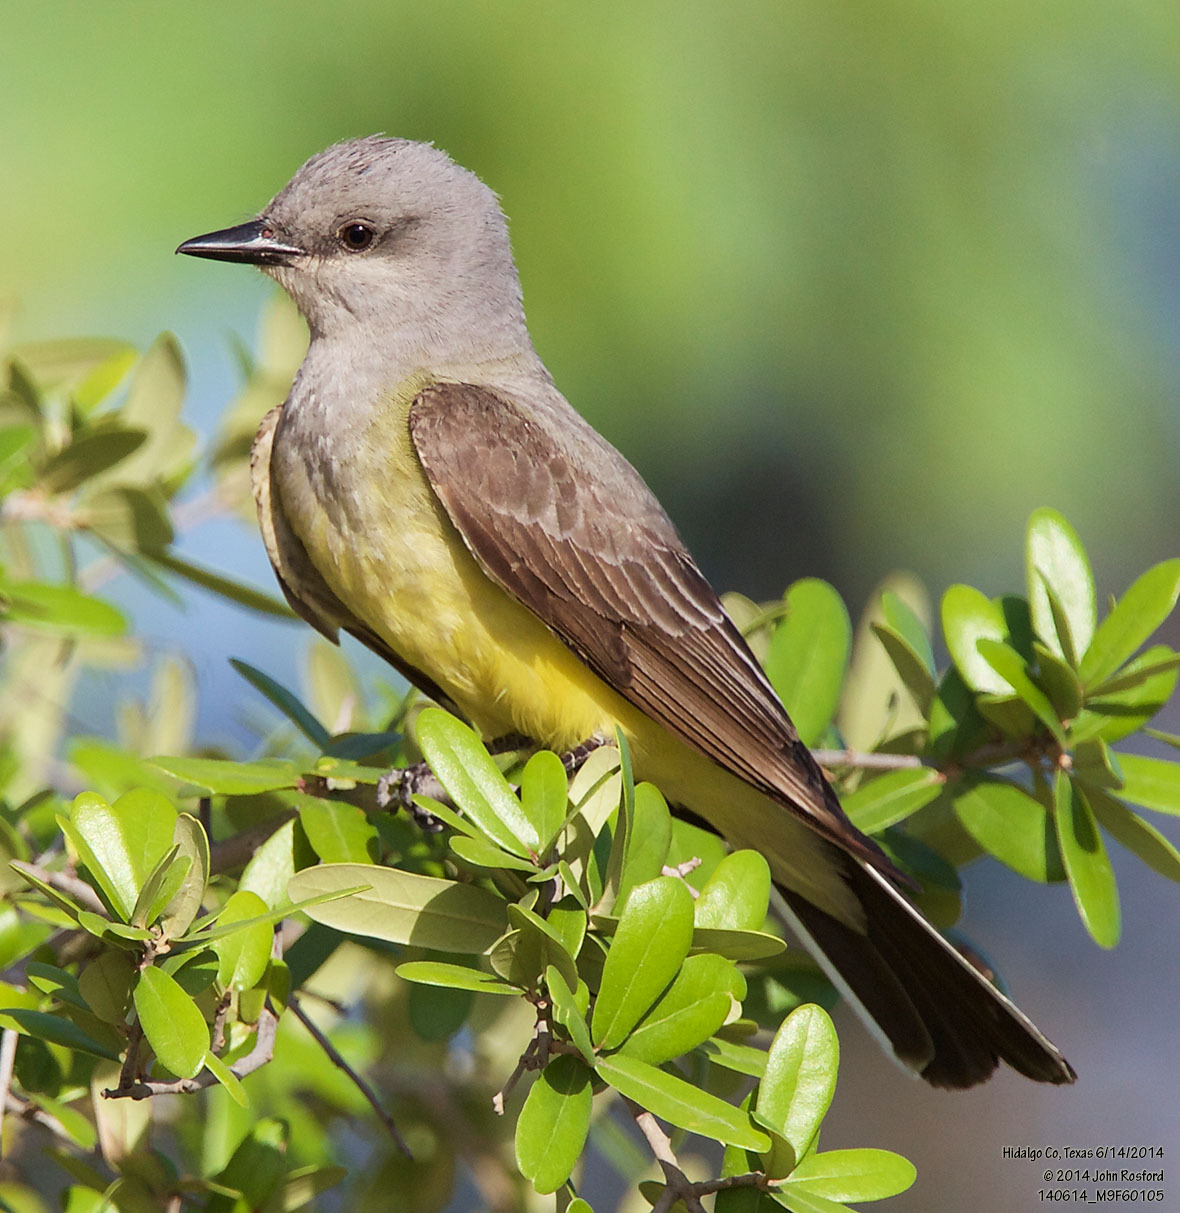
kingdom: Animalia
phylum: Chordata
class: Aves
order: Passeriformes
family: Tyrannidae
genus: Tyrannus
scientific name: Tyrannus verticalis
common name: Western kingbird
